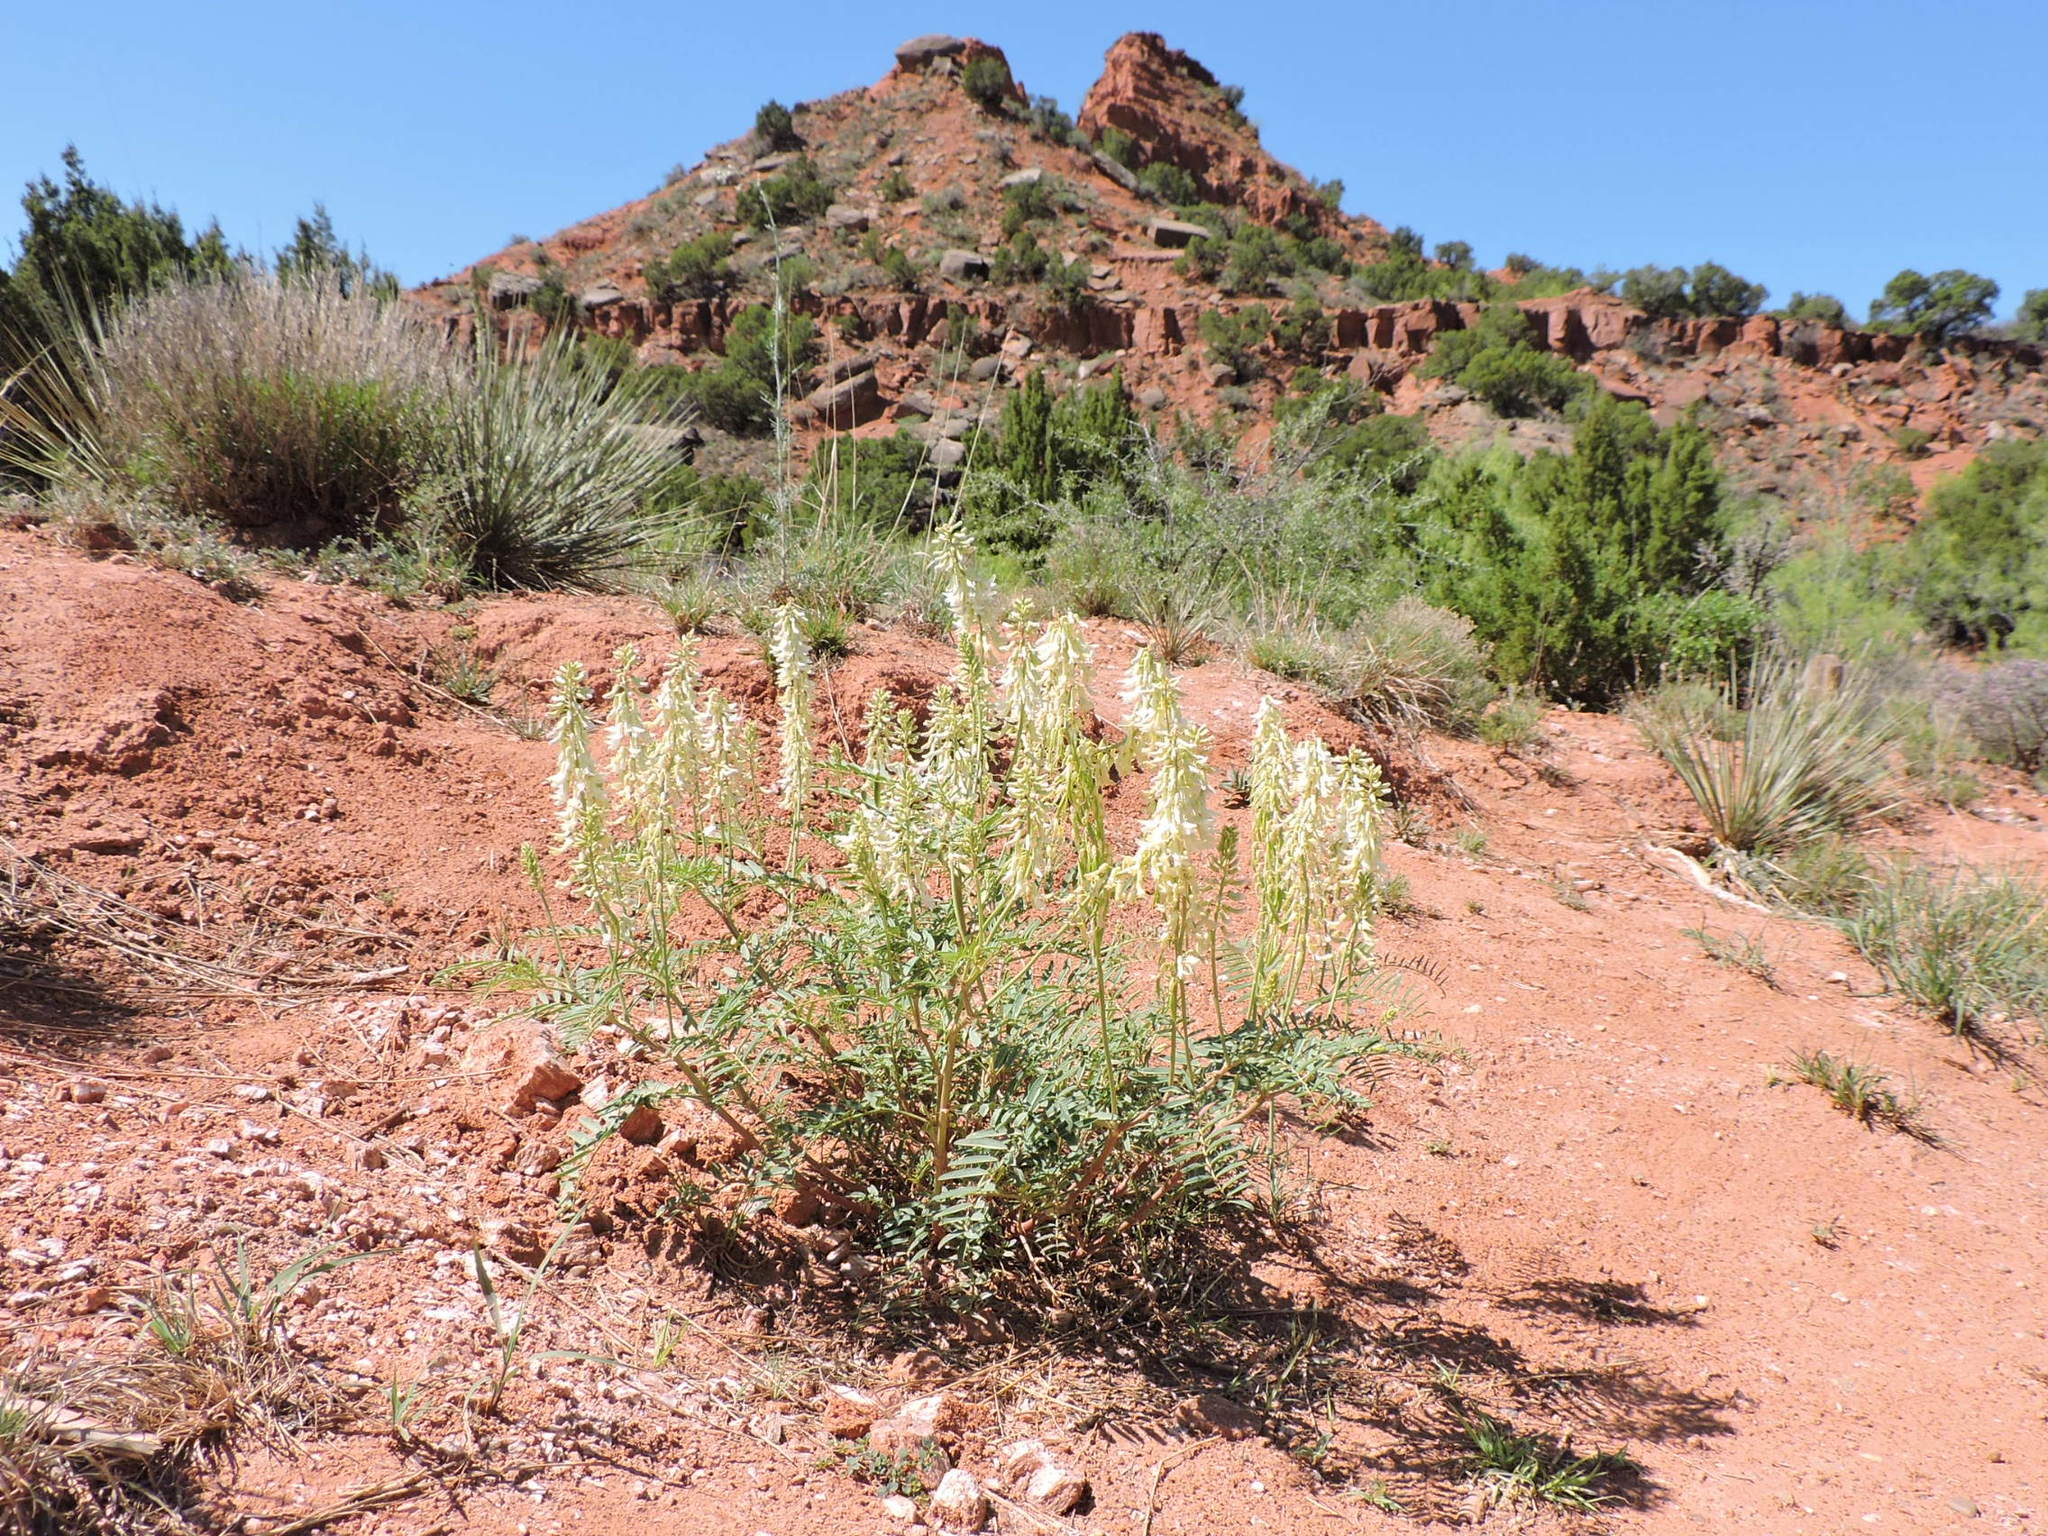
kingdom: Plantae
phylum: Tracheophyta
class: Magnoliopsida
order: Fabales
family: Fabaceae
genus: Astragalus
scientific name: Astragalus racemosus
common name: Alkali milk-vetch
